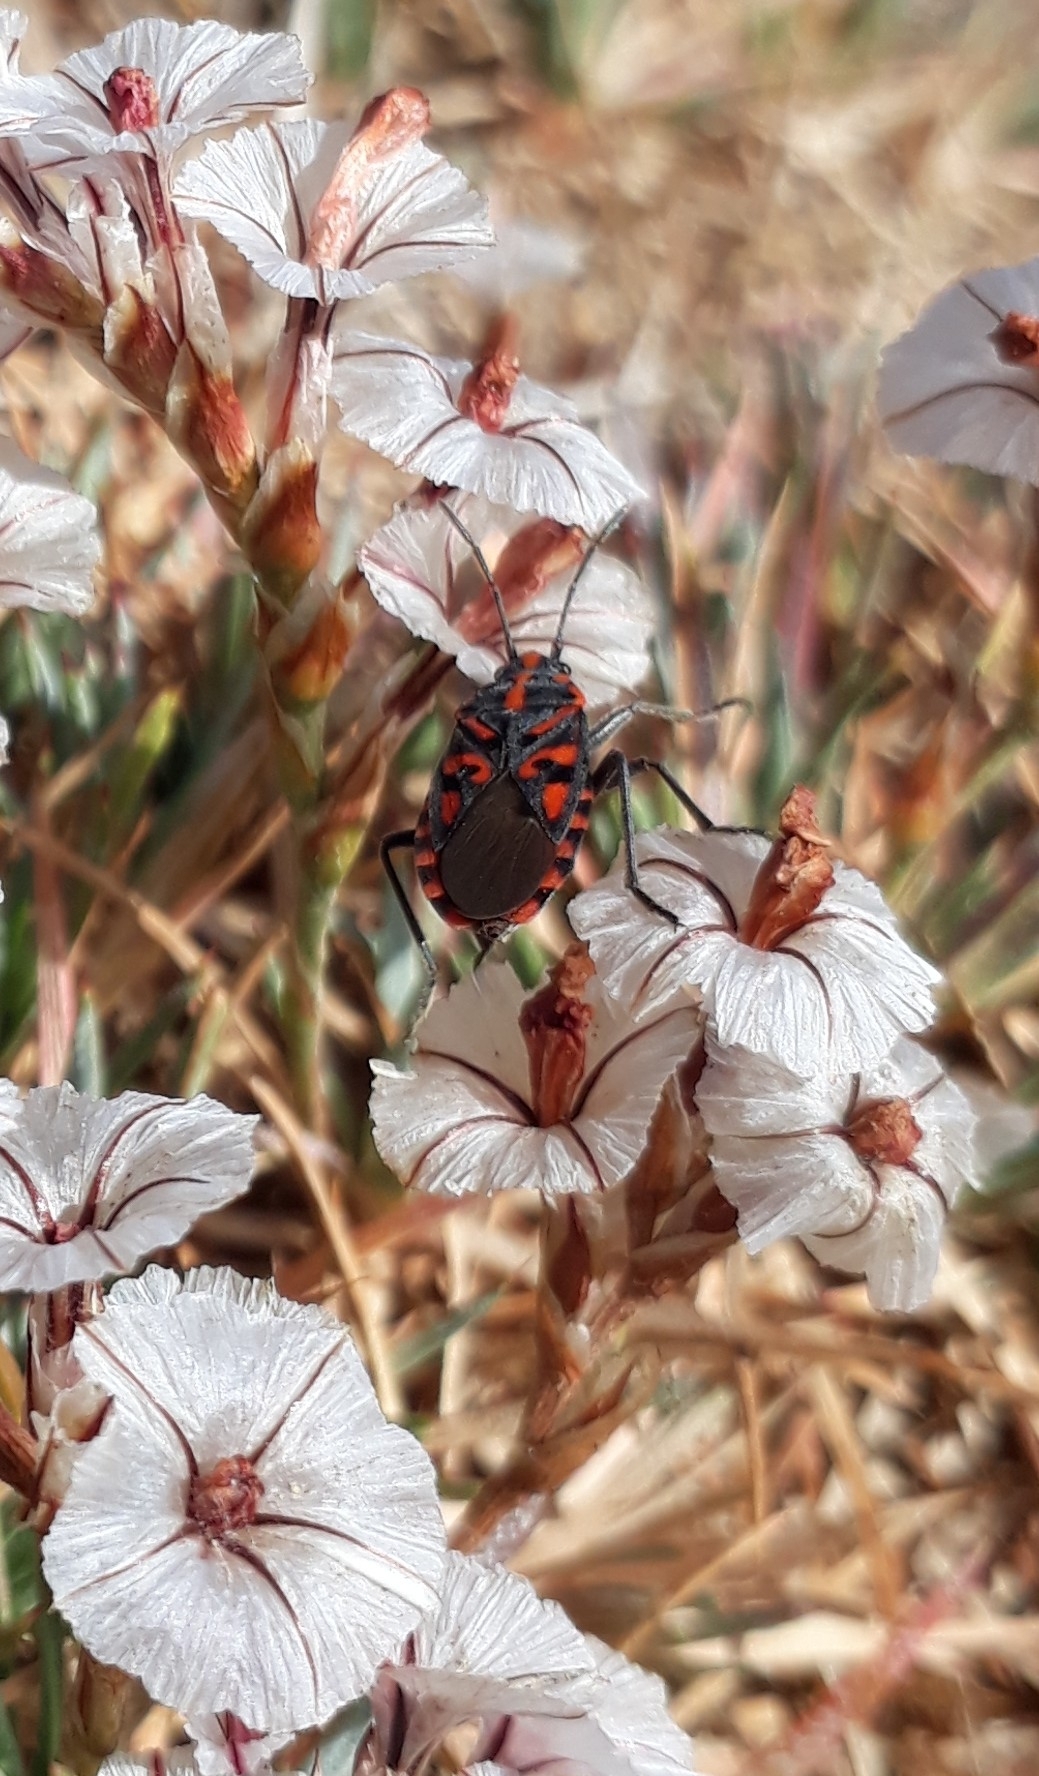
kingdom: Animalia
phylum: Arthropoda
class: Insecta
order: Hemiptera
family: Lygaeidae
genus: Spilostethus
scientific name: Spilostethus saxatilis
